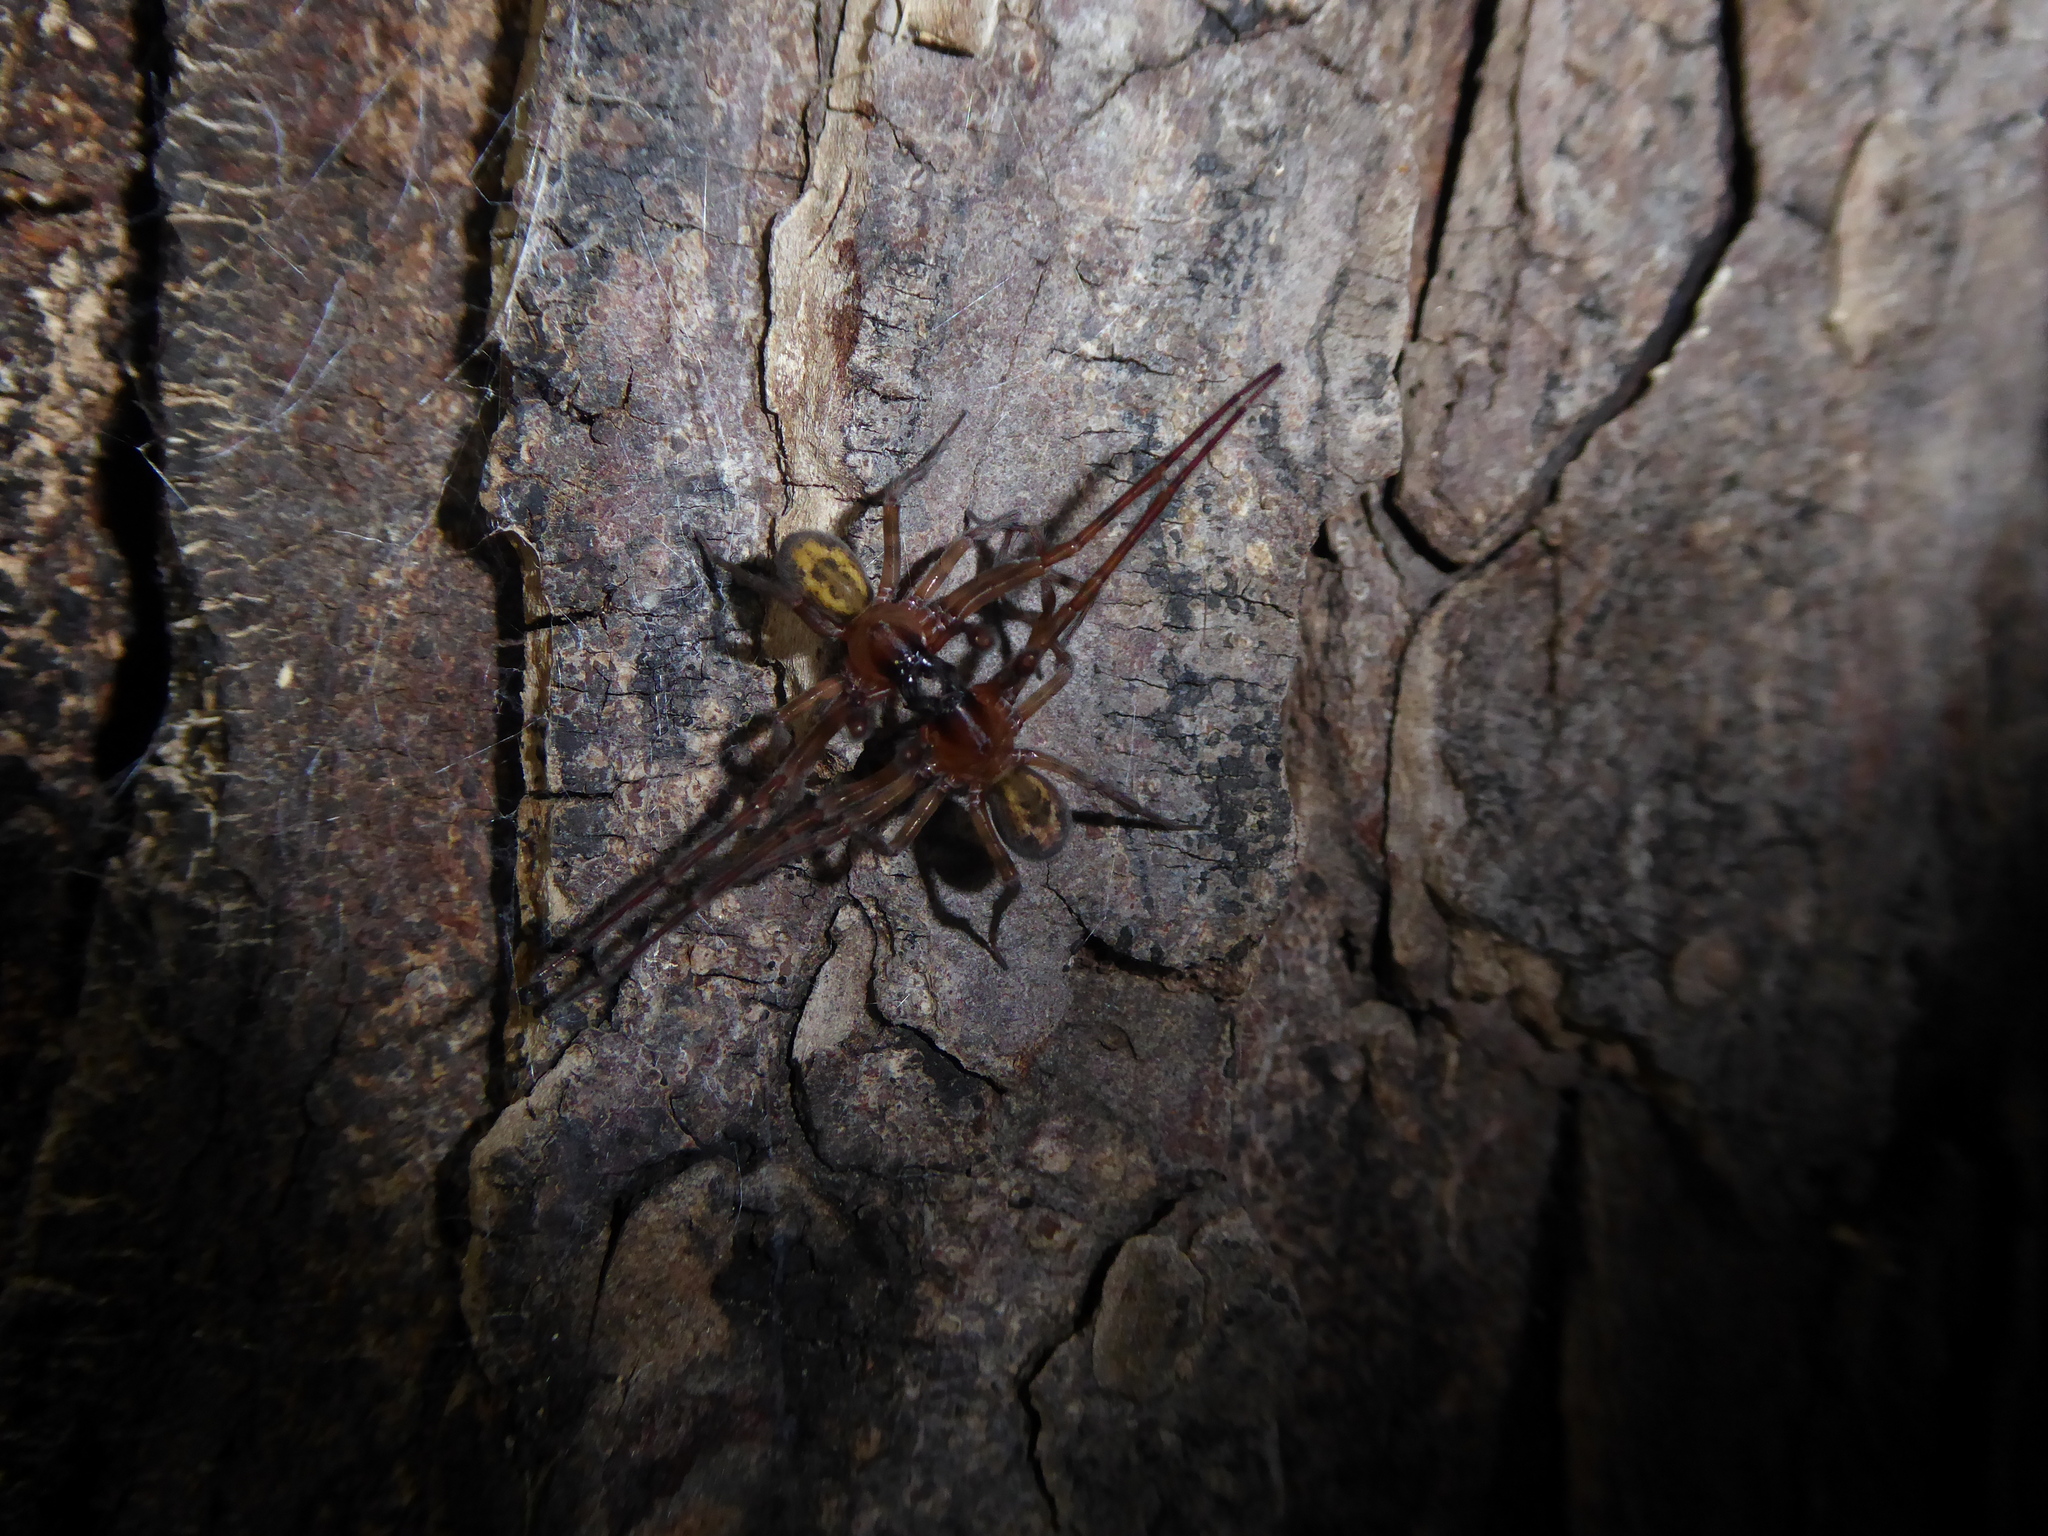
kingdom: Animalia
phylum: Arthropoda
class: Arachnida
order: Araneae
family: Amaurobiidae
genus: Amaurobius
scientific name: Amaurobius
